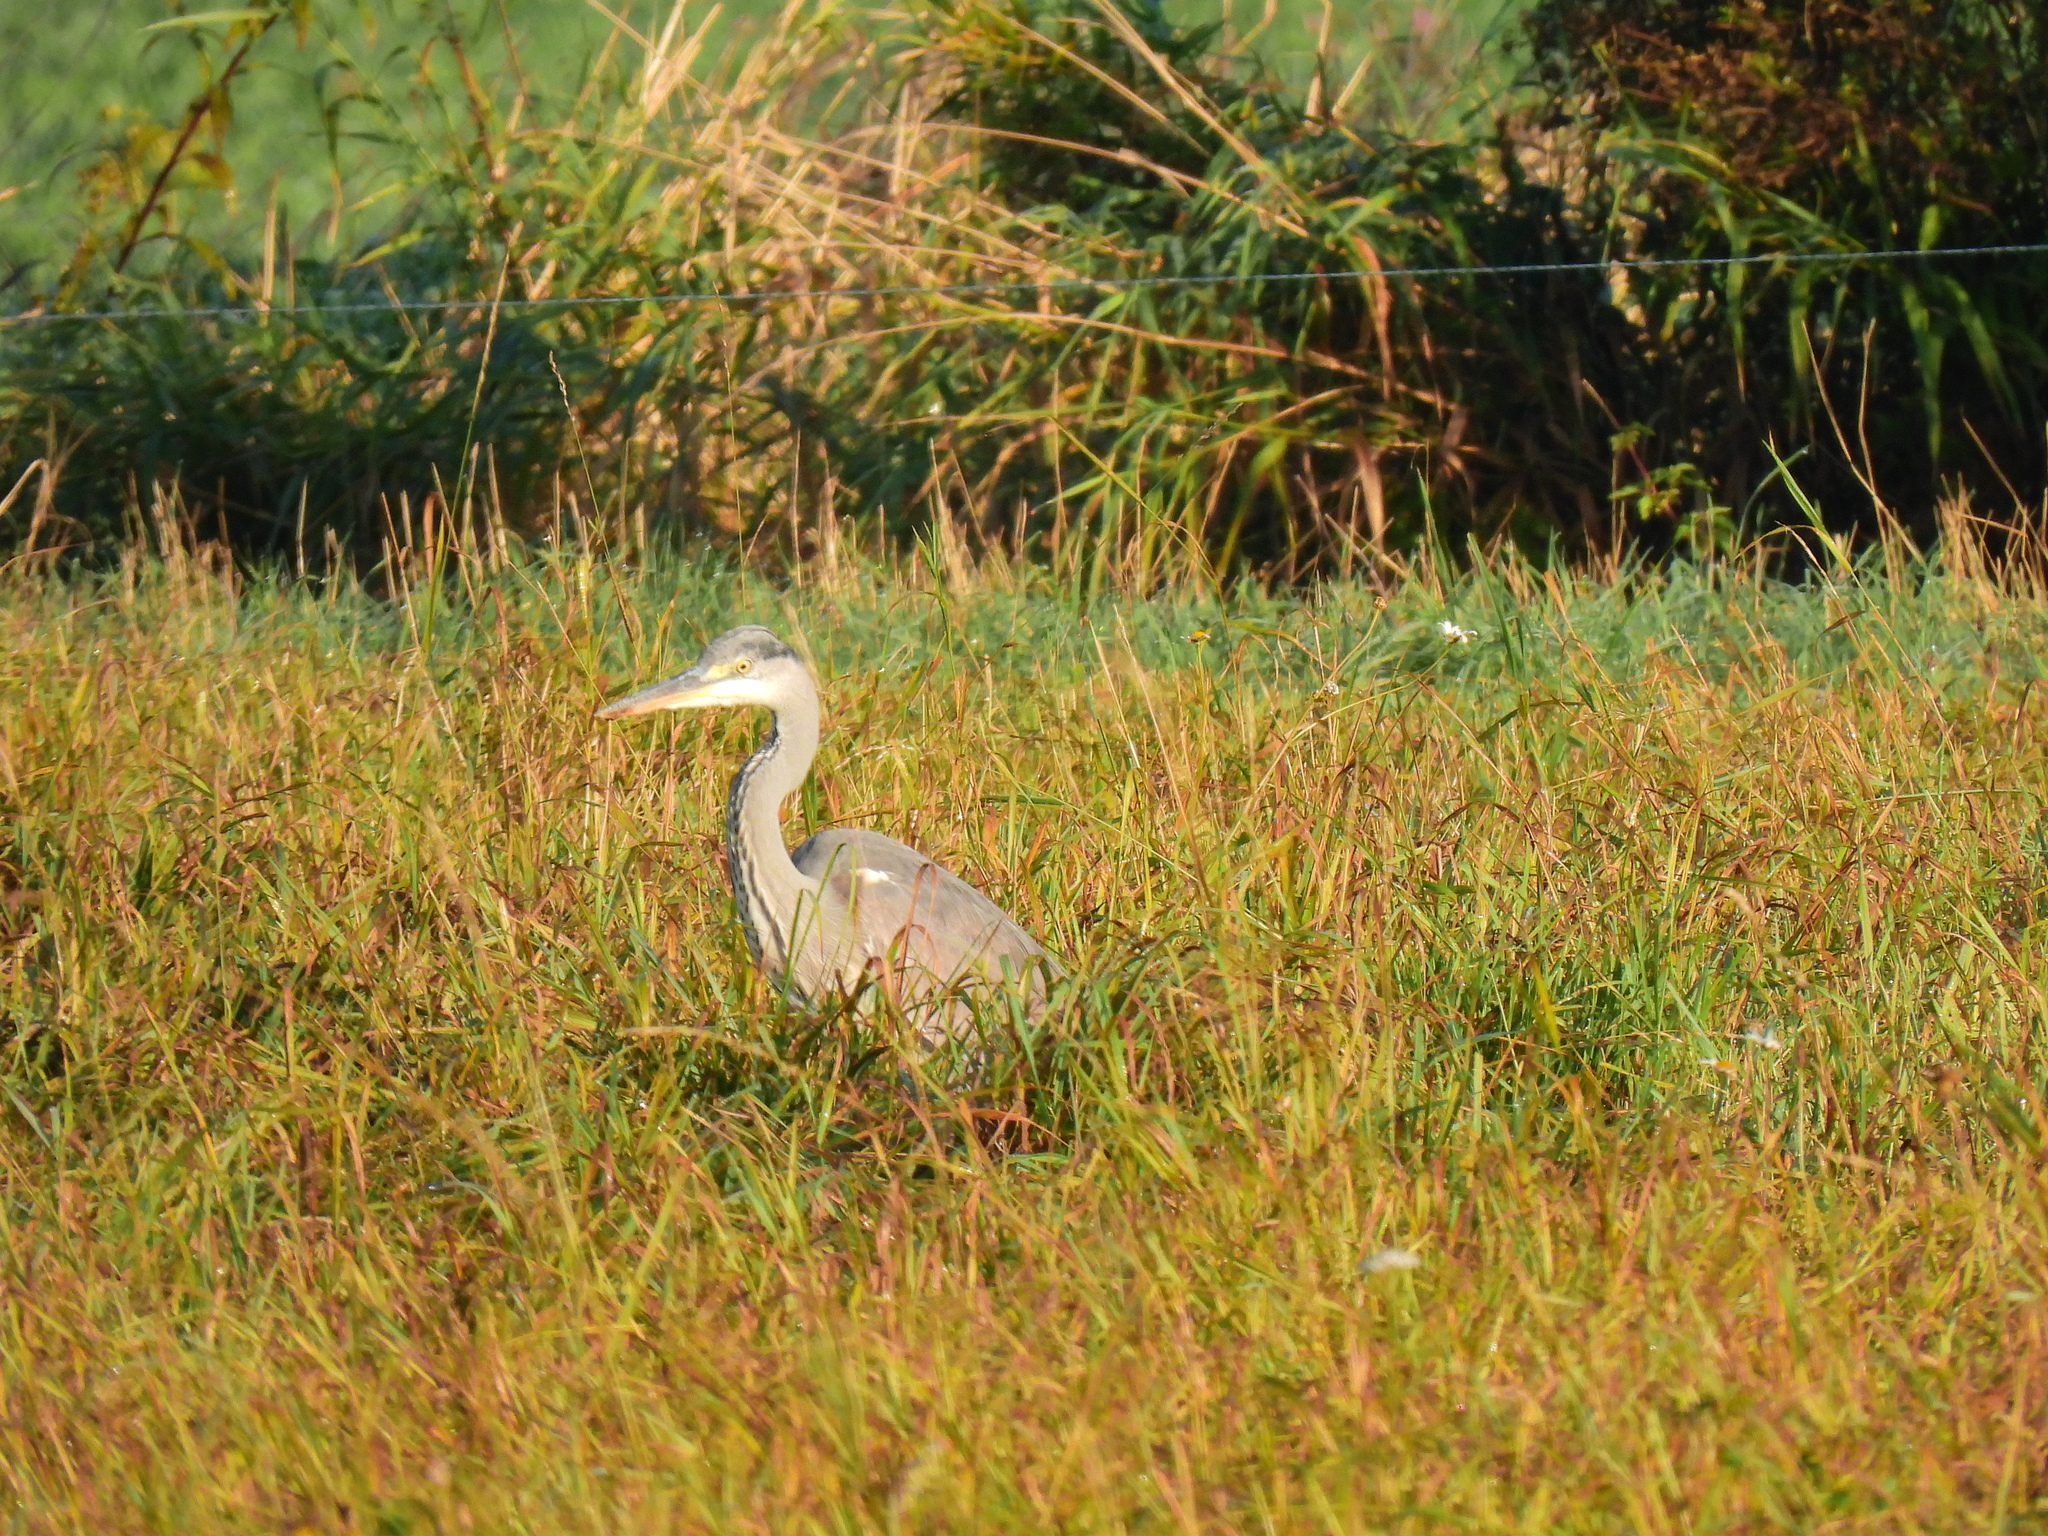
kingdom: Animalia
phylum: Chordata
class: Aves
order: Pelecaniformes
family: Ardeidae
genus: Ardea
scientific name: Ardea cinerea
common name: Grey heron
